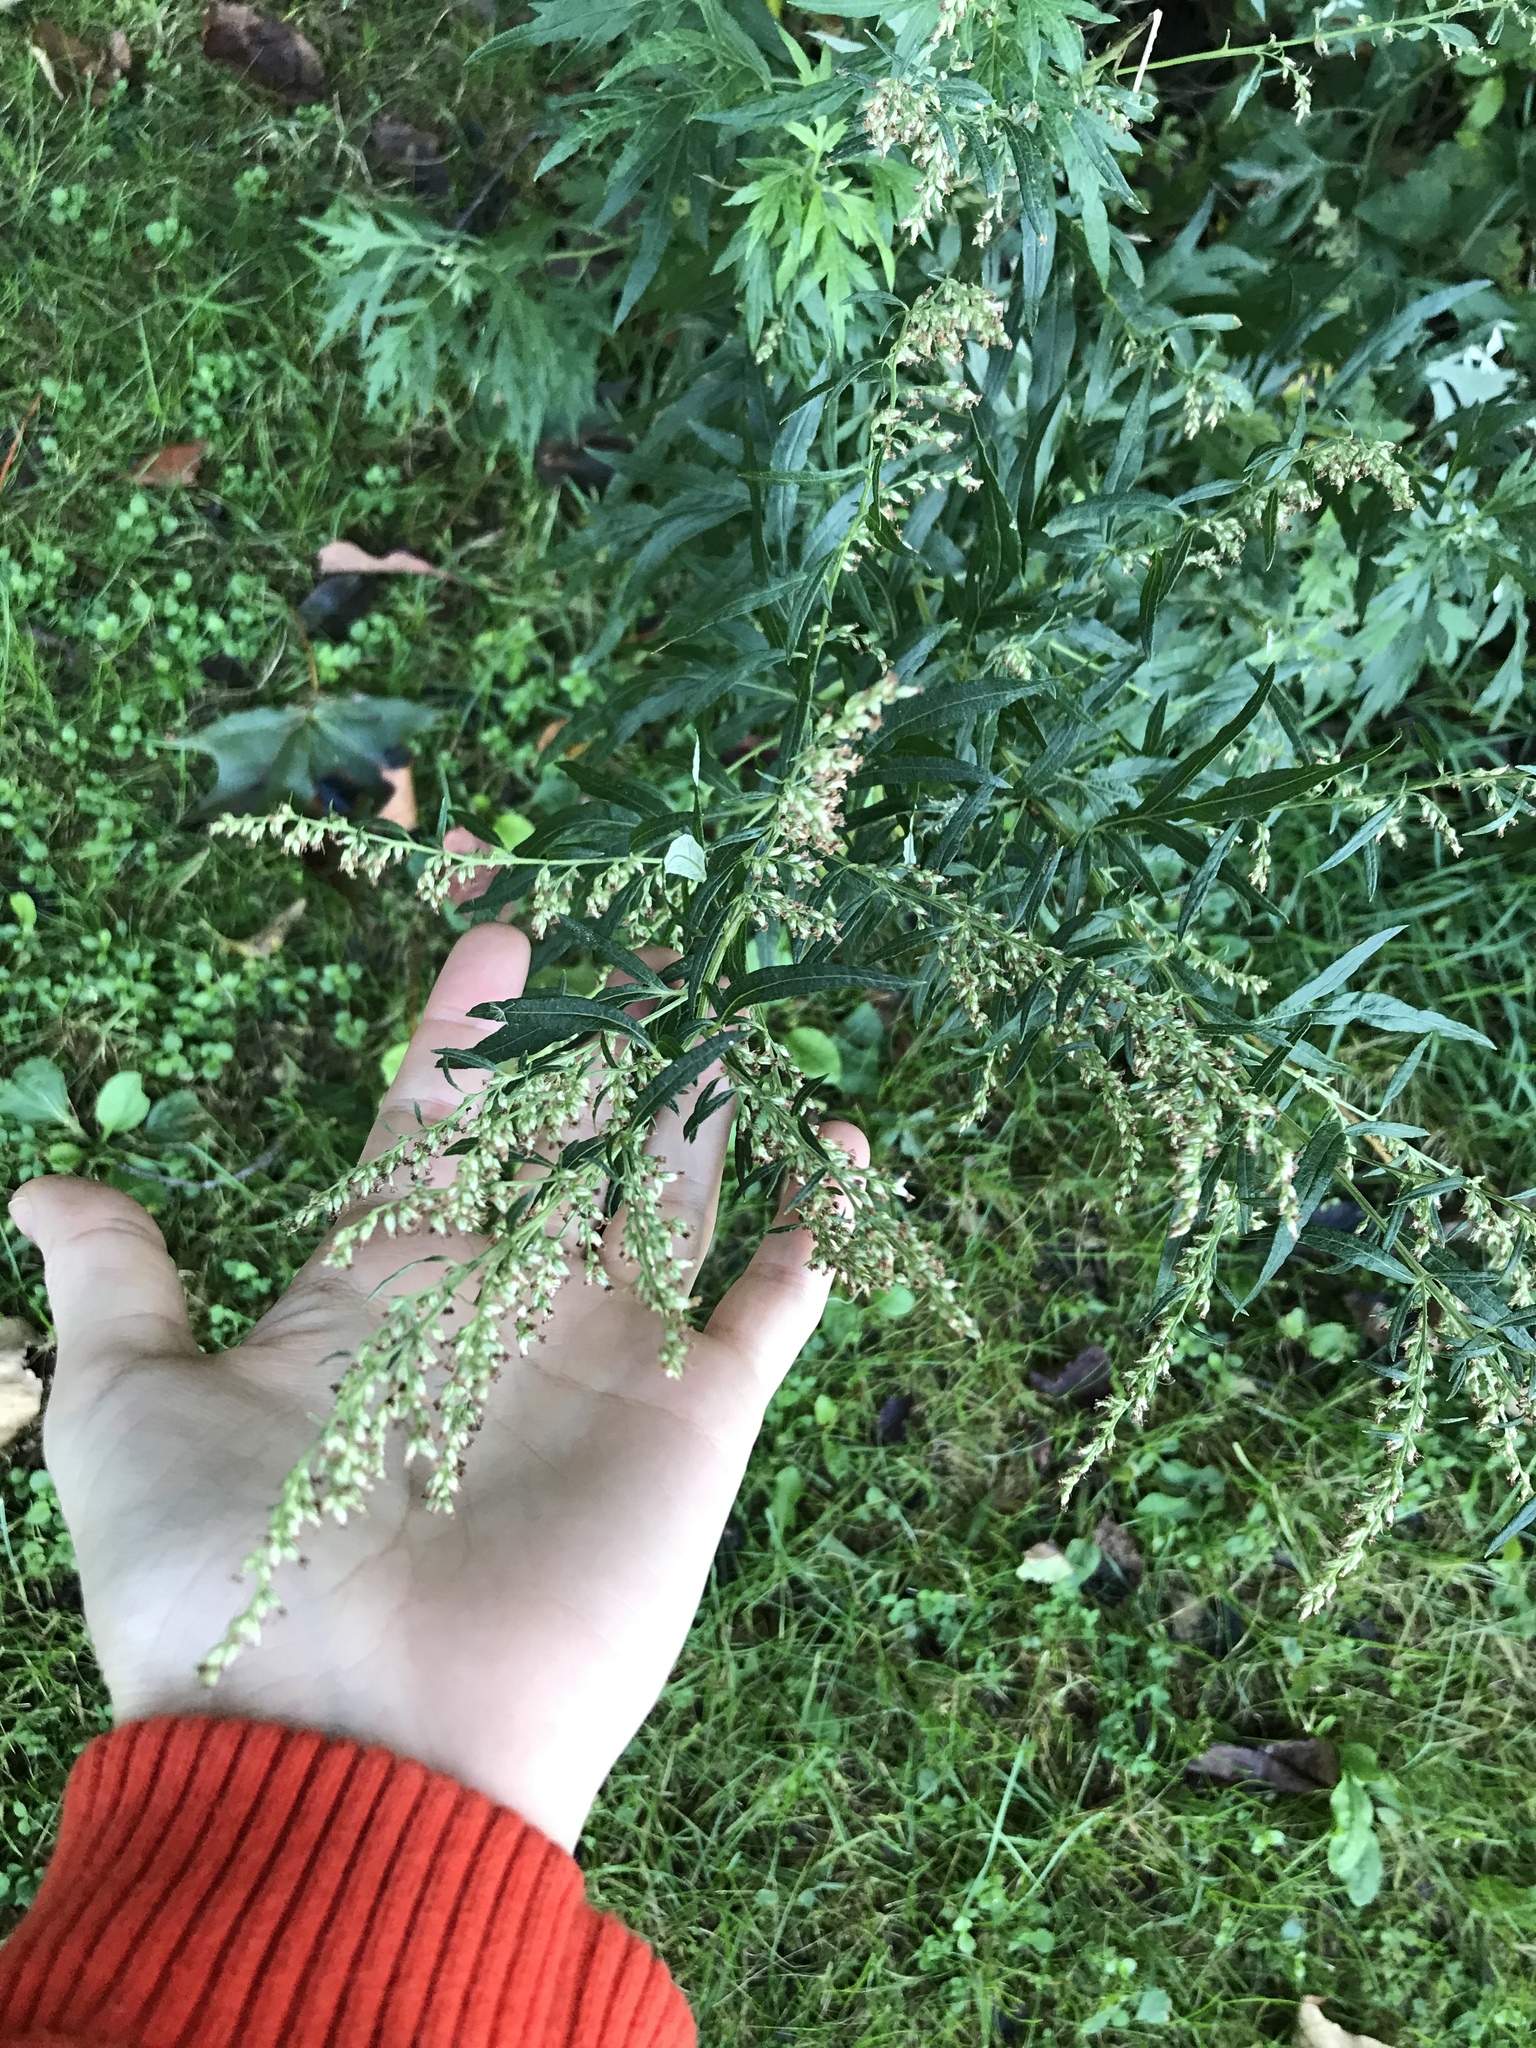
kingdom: Plantae
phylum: Tracheophyta
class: Magnoliopsida
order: Asterales
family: Asteraceae
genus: Artemisia
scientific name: Artemisia vulgaris
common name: Mugwort
